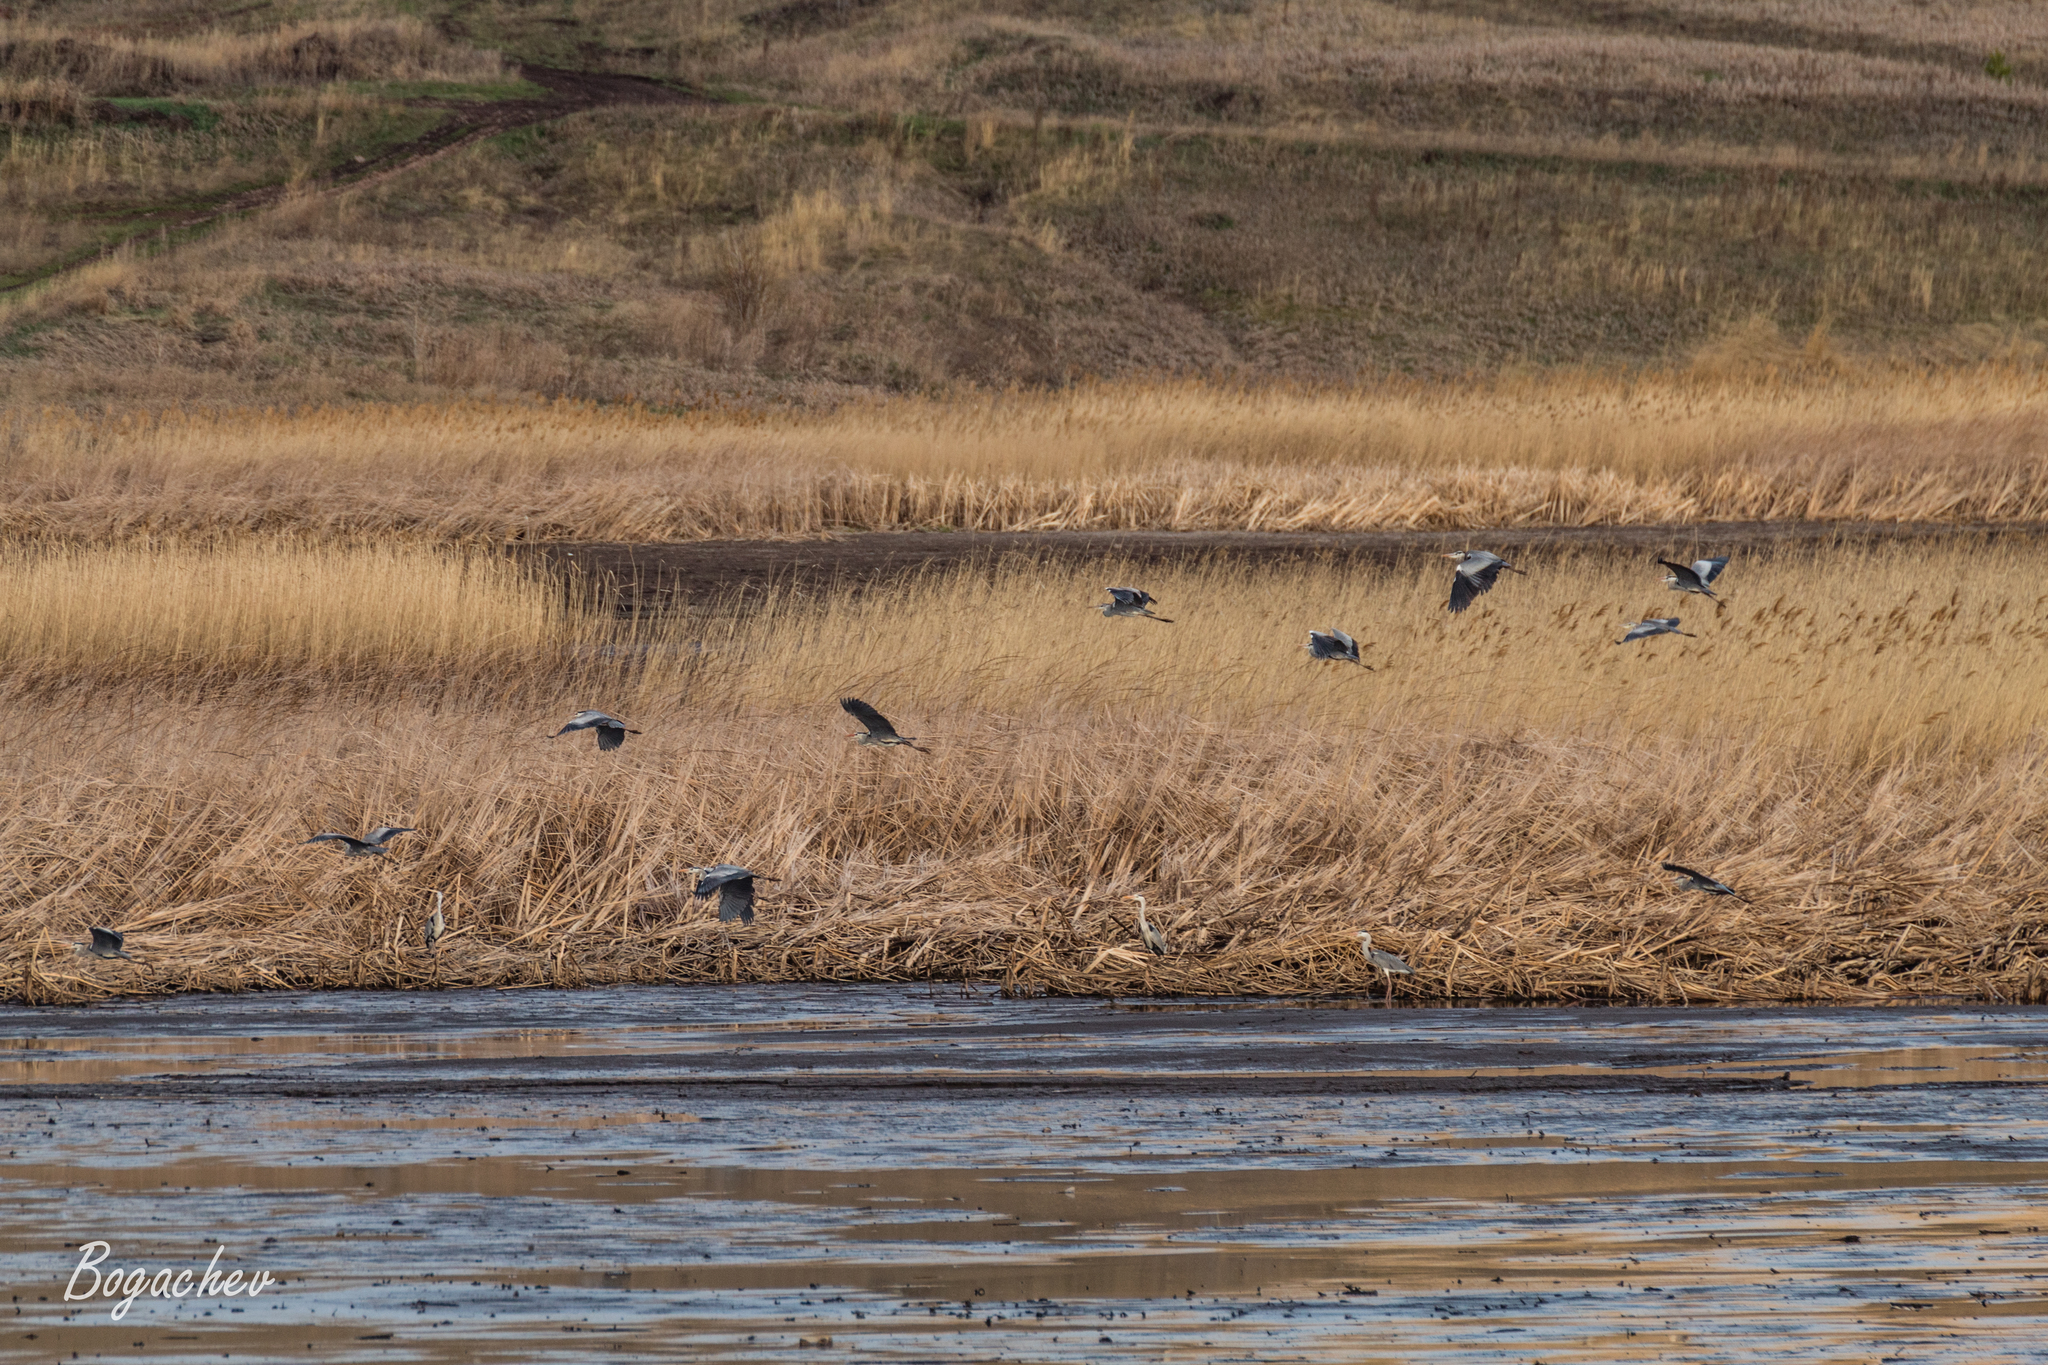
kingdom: Animalia
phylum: Chordata
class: Aves
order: Pelecaniformes
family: Ardeidae
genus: Ardea
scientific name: Ardea cinerea
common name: Grey heron
